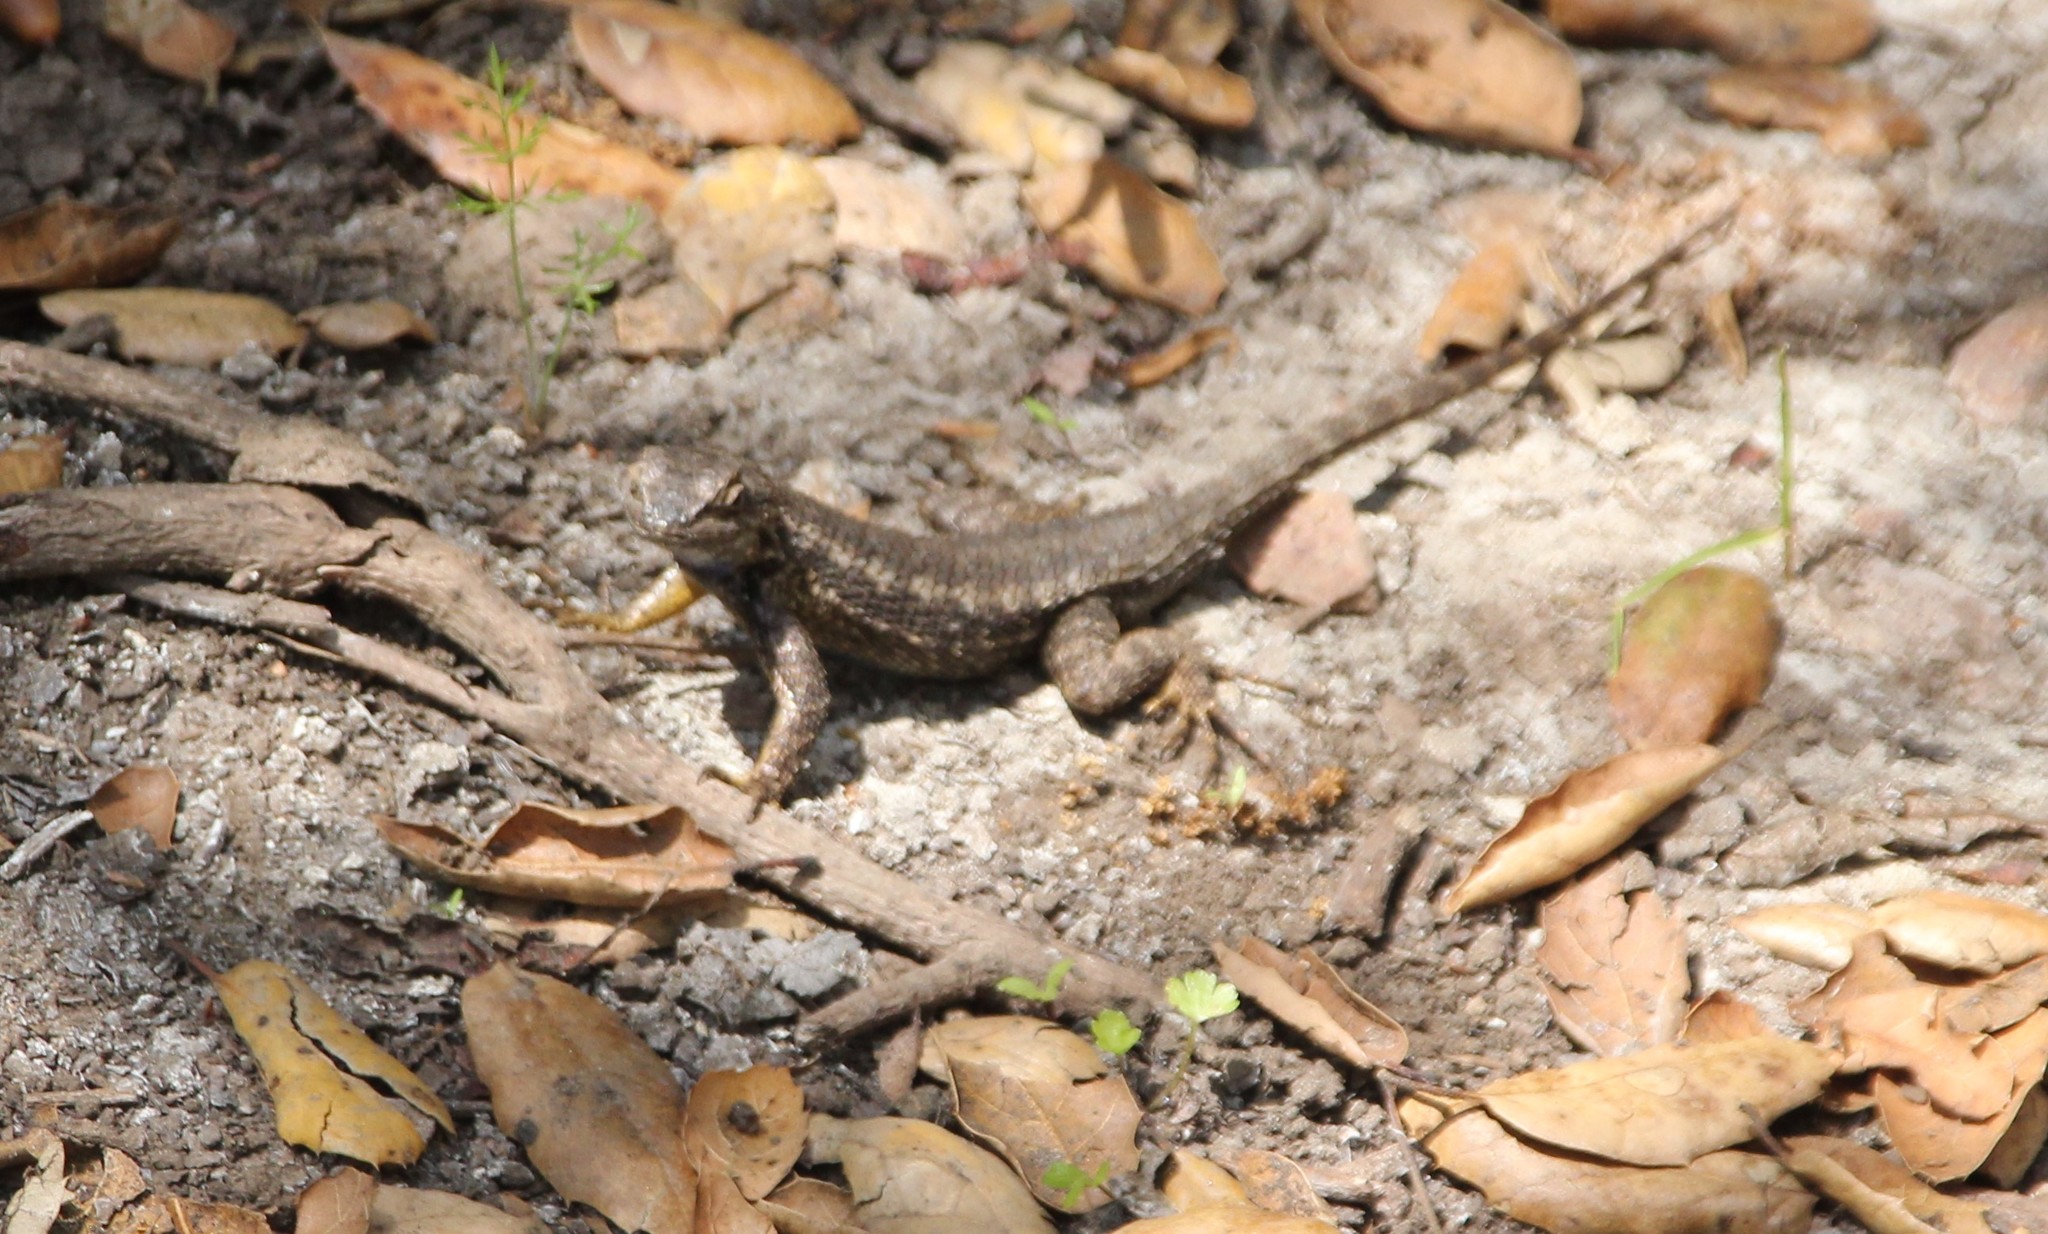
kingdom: Animalia
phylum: Chordata
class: Squamata
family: Phrynosomatidae
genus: Sceloporus
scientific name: Sceloporus occidentalis
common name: Western fence lizard
